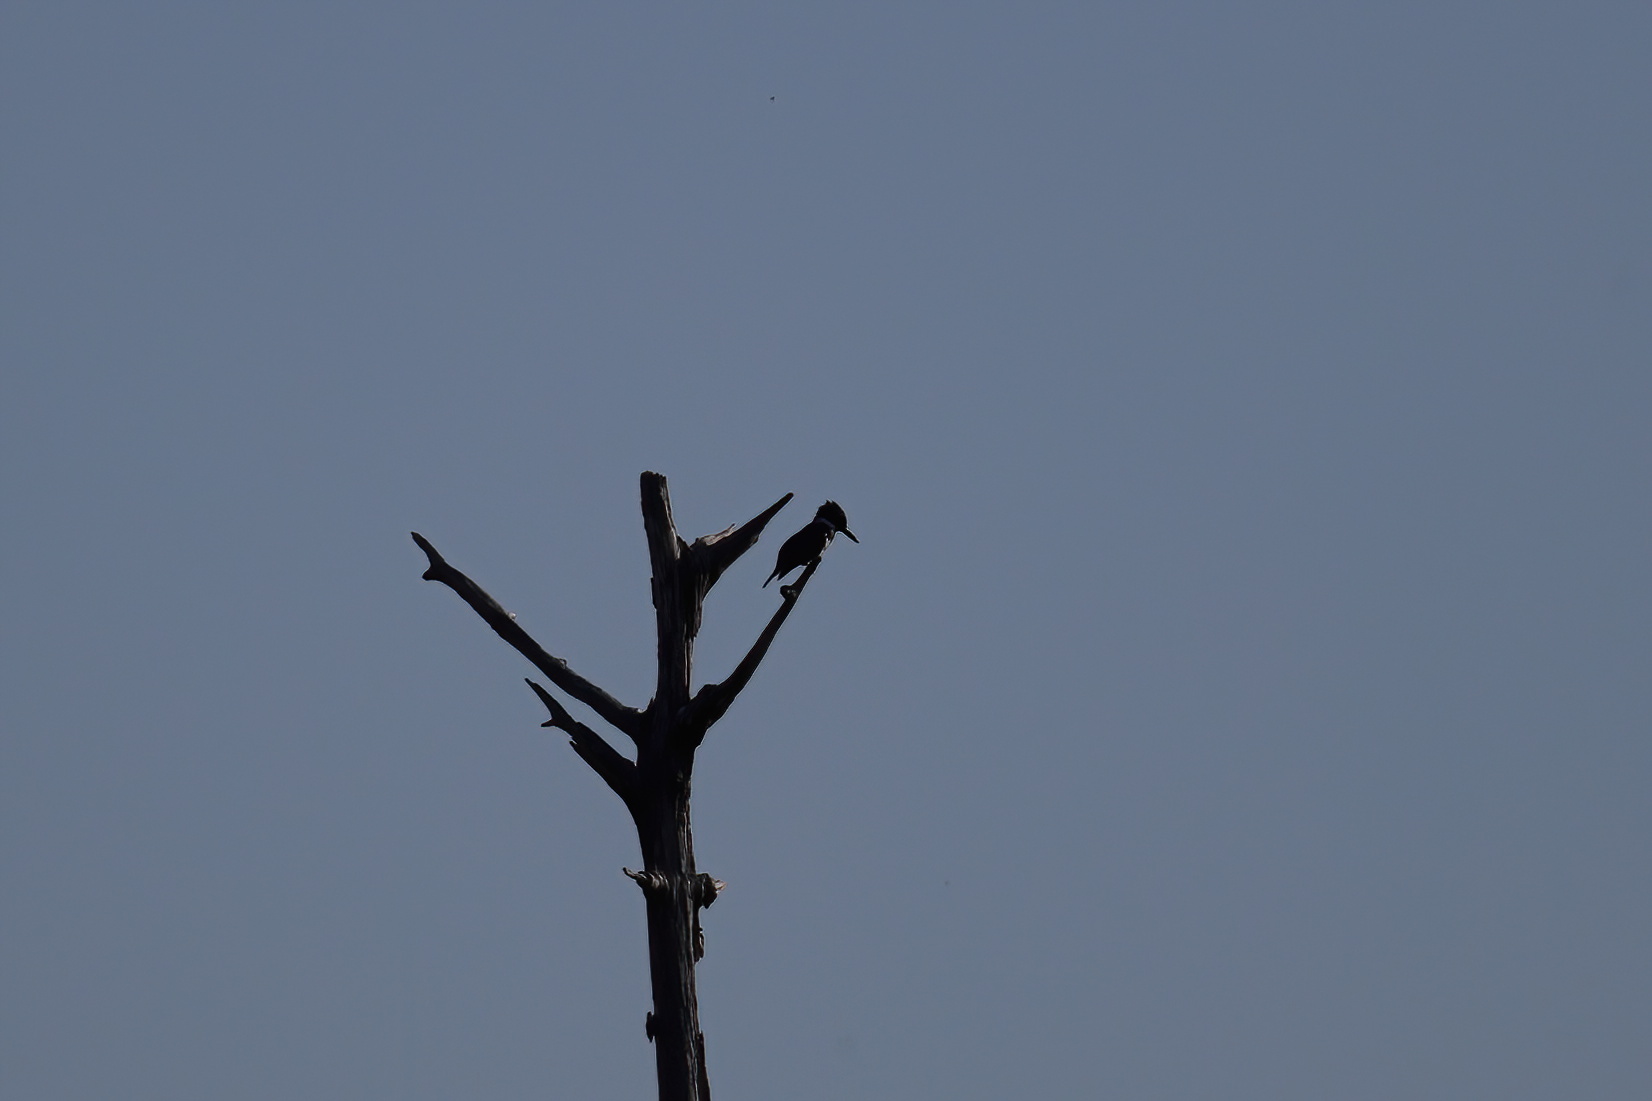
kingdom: Animalia
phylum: Chordata
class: Aves
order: Coraciiformes
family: Alcedinidae
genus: Megaceryle
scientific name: Megaceryle alcyon
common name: Belted kingfisher
